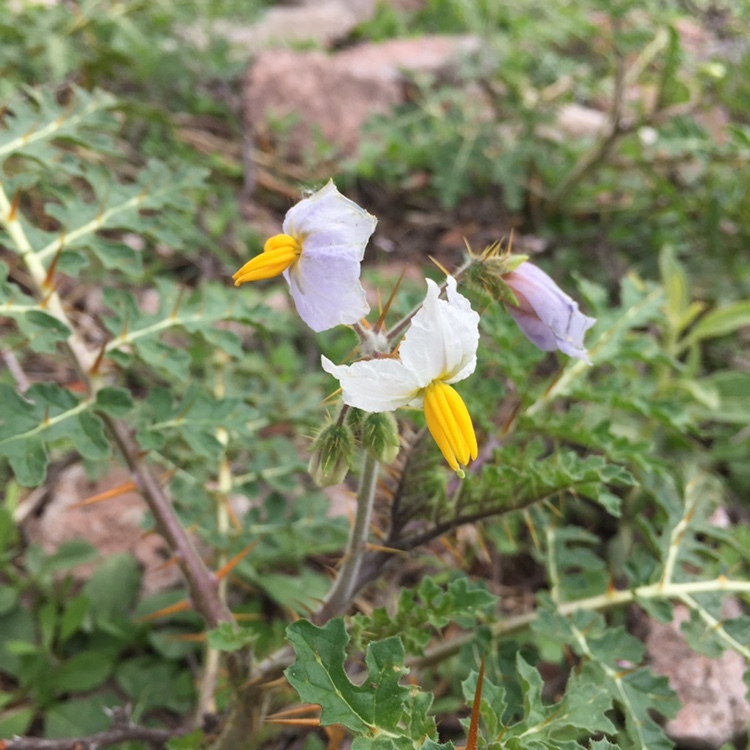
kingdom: Plantae
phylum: Tracheophyta
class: Magnoliopsida
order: Solanales
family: Solanaceae
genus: Solanum
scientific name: Solanum sisymbriifolium
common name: Red buffalo-bur
